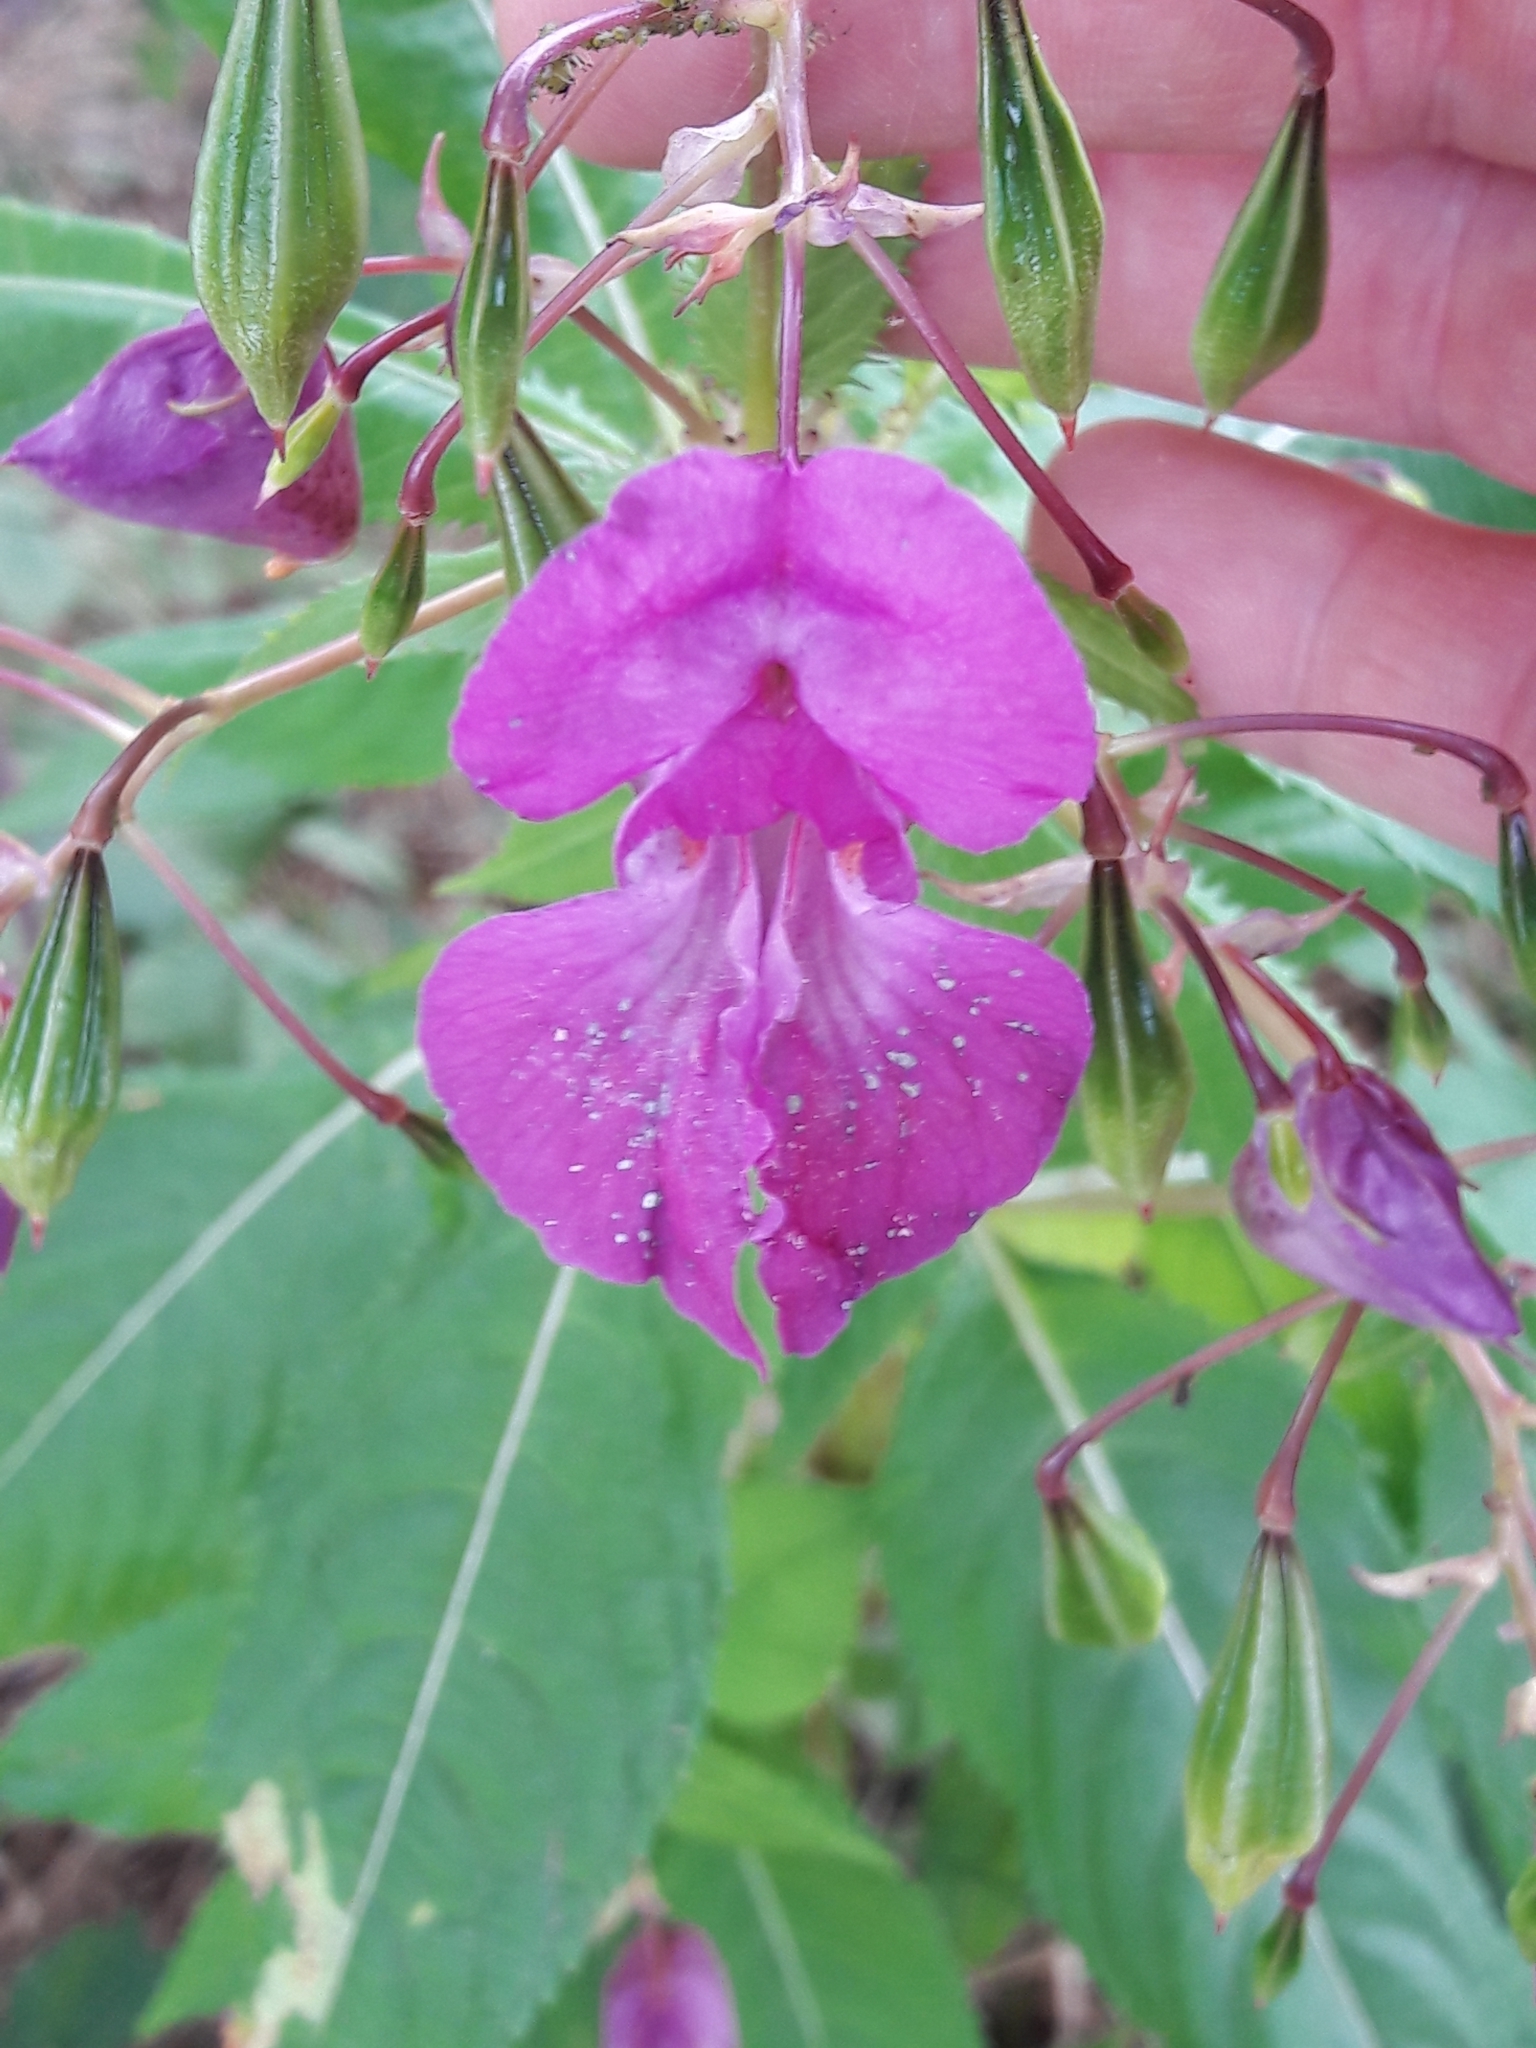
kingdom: Plantae
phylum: Tracheophyta
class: Magnoliopsida
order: Ericales
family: Balsaminaceae
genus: Impatiens
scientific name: Impatiens glandulifera
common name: Himalayan balsam
